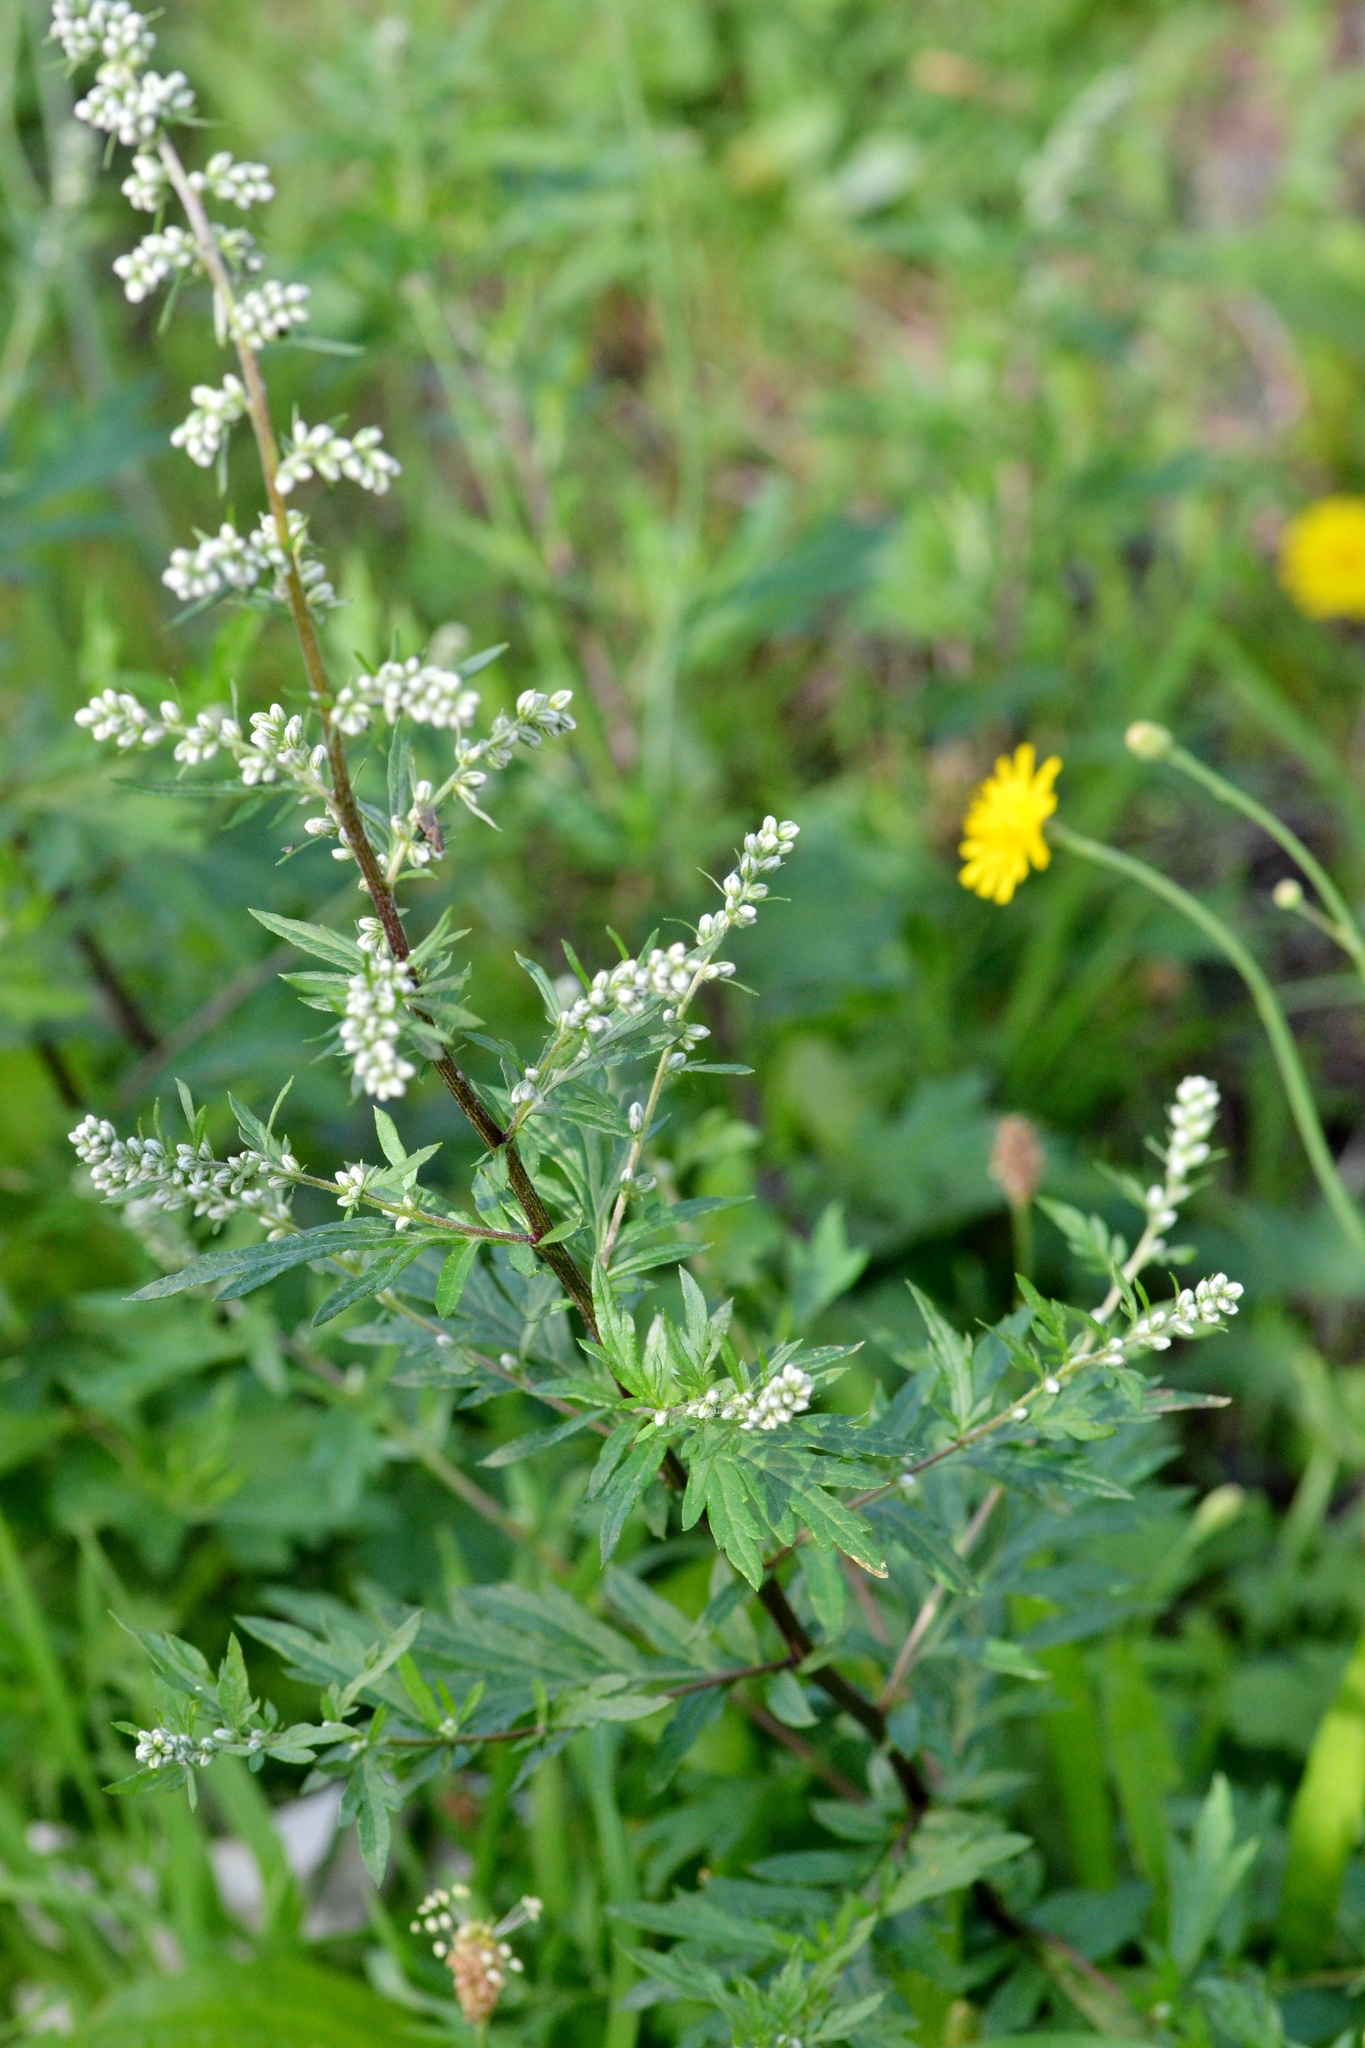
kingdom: Plantae
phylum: Tracheophyta
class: Magnoliopsida
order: Asterales
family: Asteraceae
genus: Artemisia
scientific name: Artemisia vulgaris
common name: Mugwort
